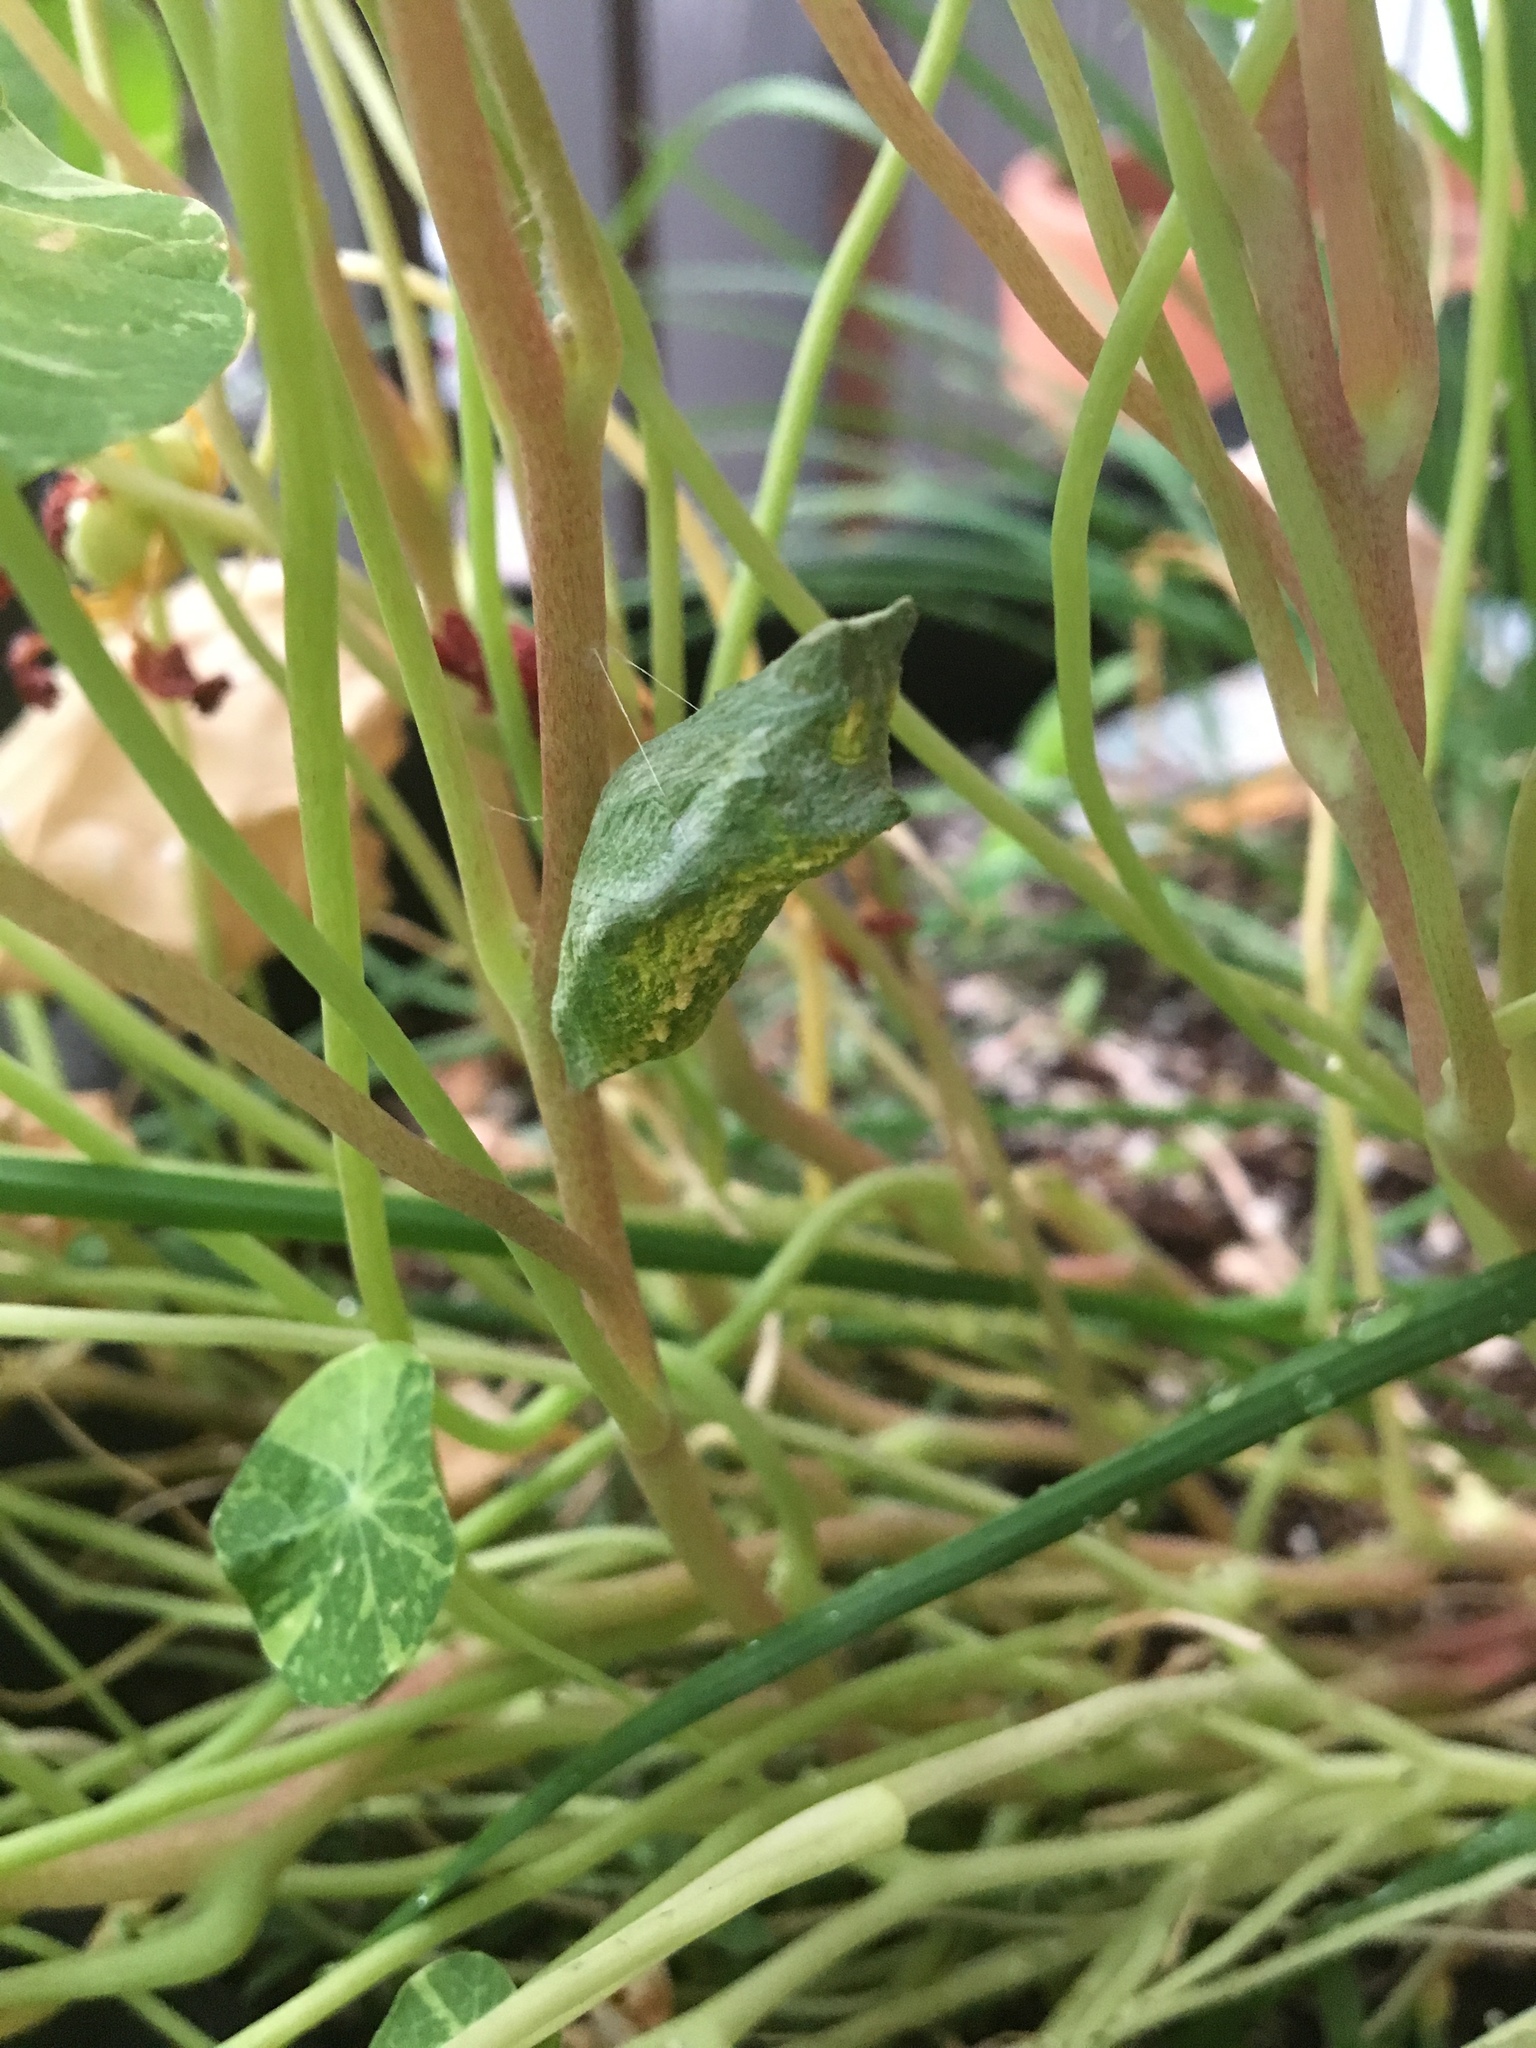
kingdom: Animalia
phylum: Arthropoda
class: Insecta
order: Lepidoptera
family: Papilionidae
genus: Papilio
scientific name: Papilio polyxenes
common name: Black swallowtail
